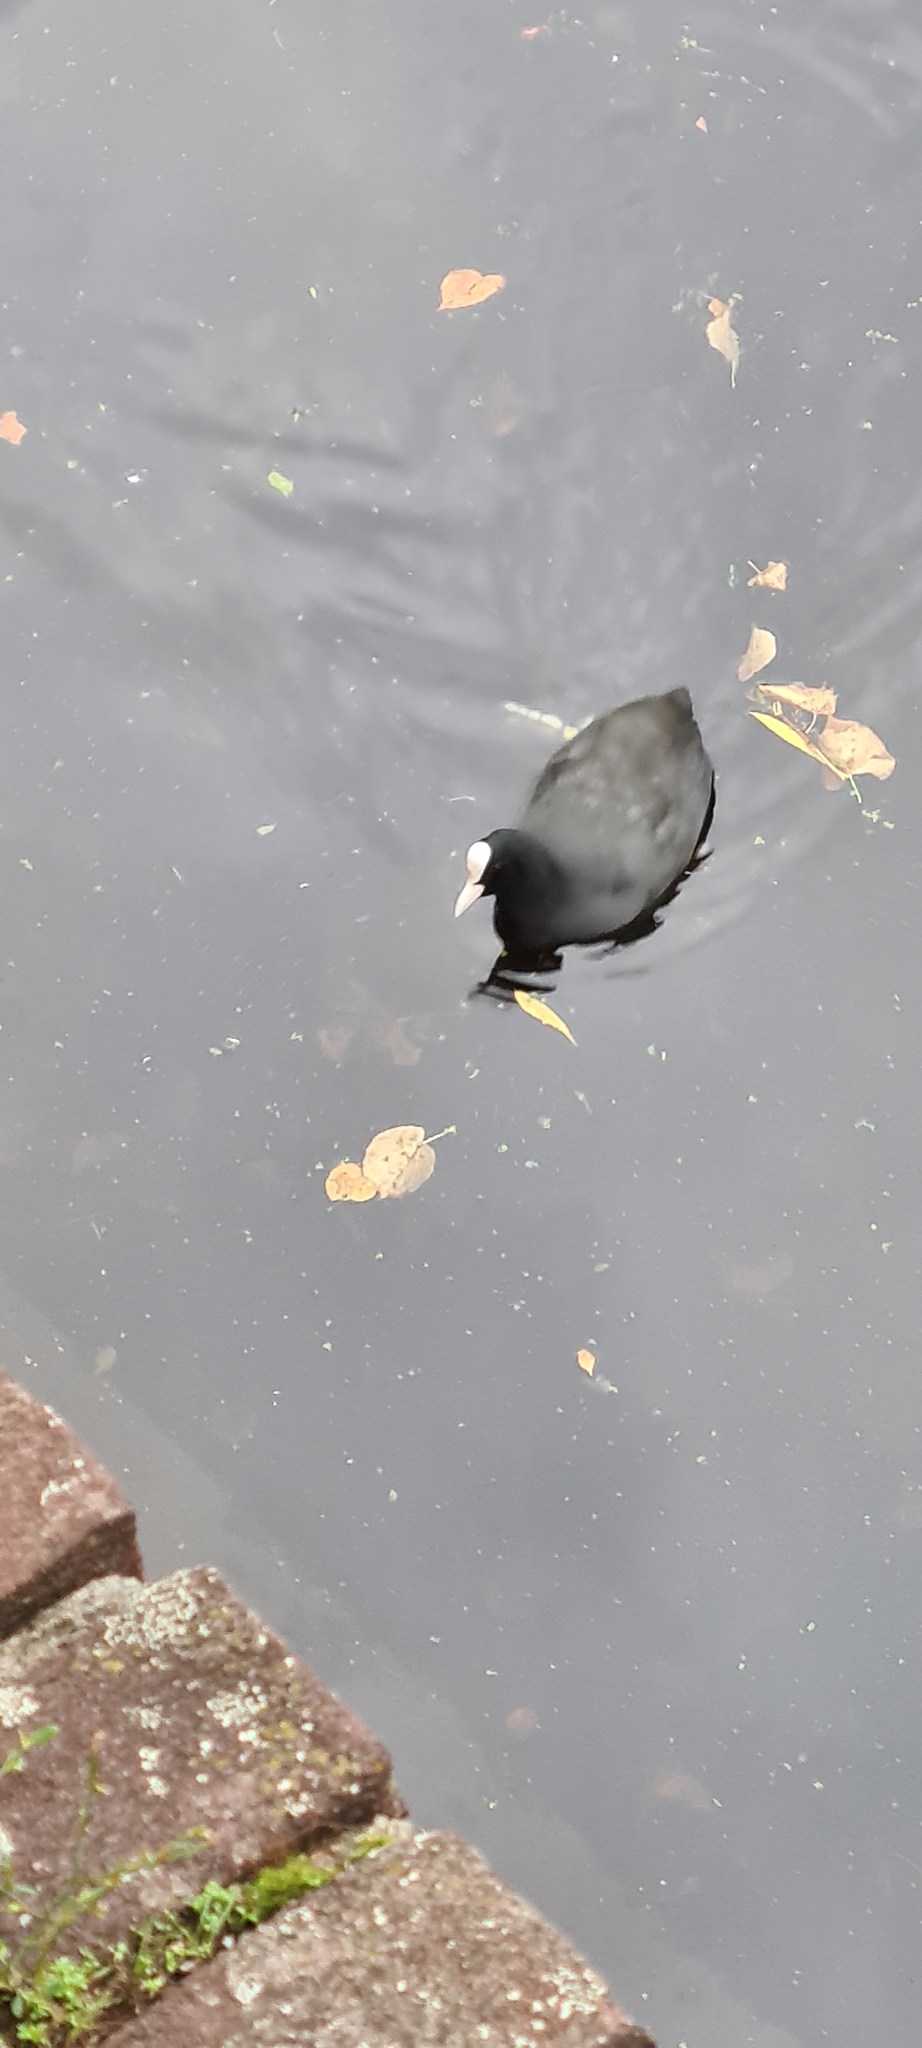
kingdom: Animalia
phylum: Chordata
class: Aves
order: Gruiformes
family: Rallidae
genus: Fulica
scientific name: Fulica atra
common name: Eurasian coot
